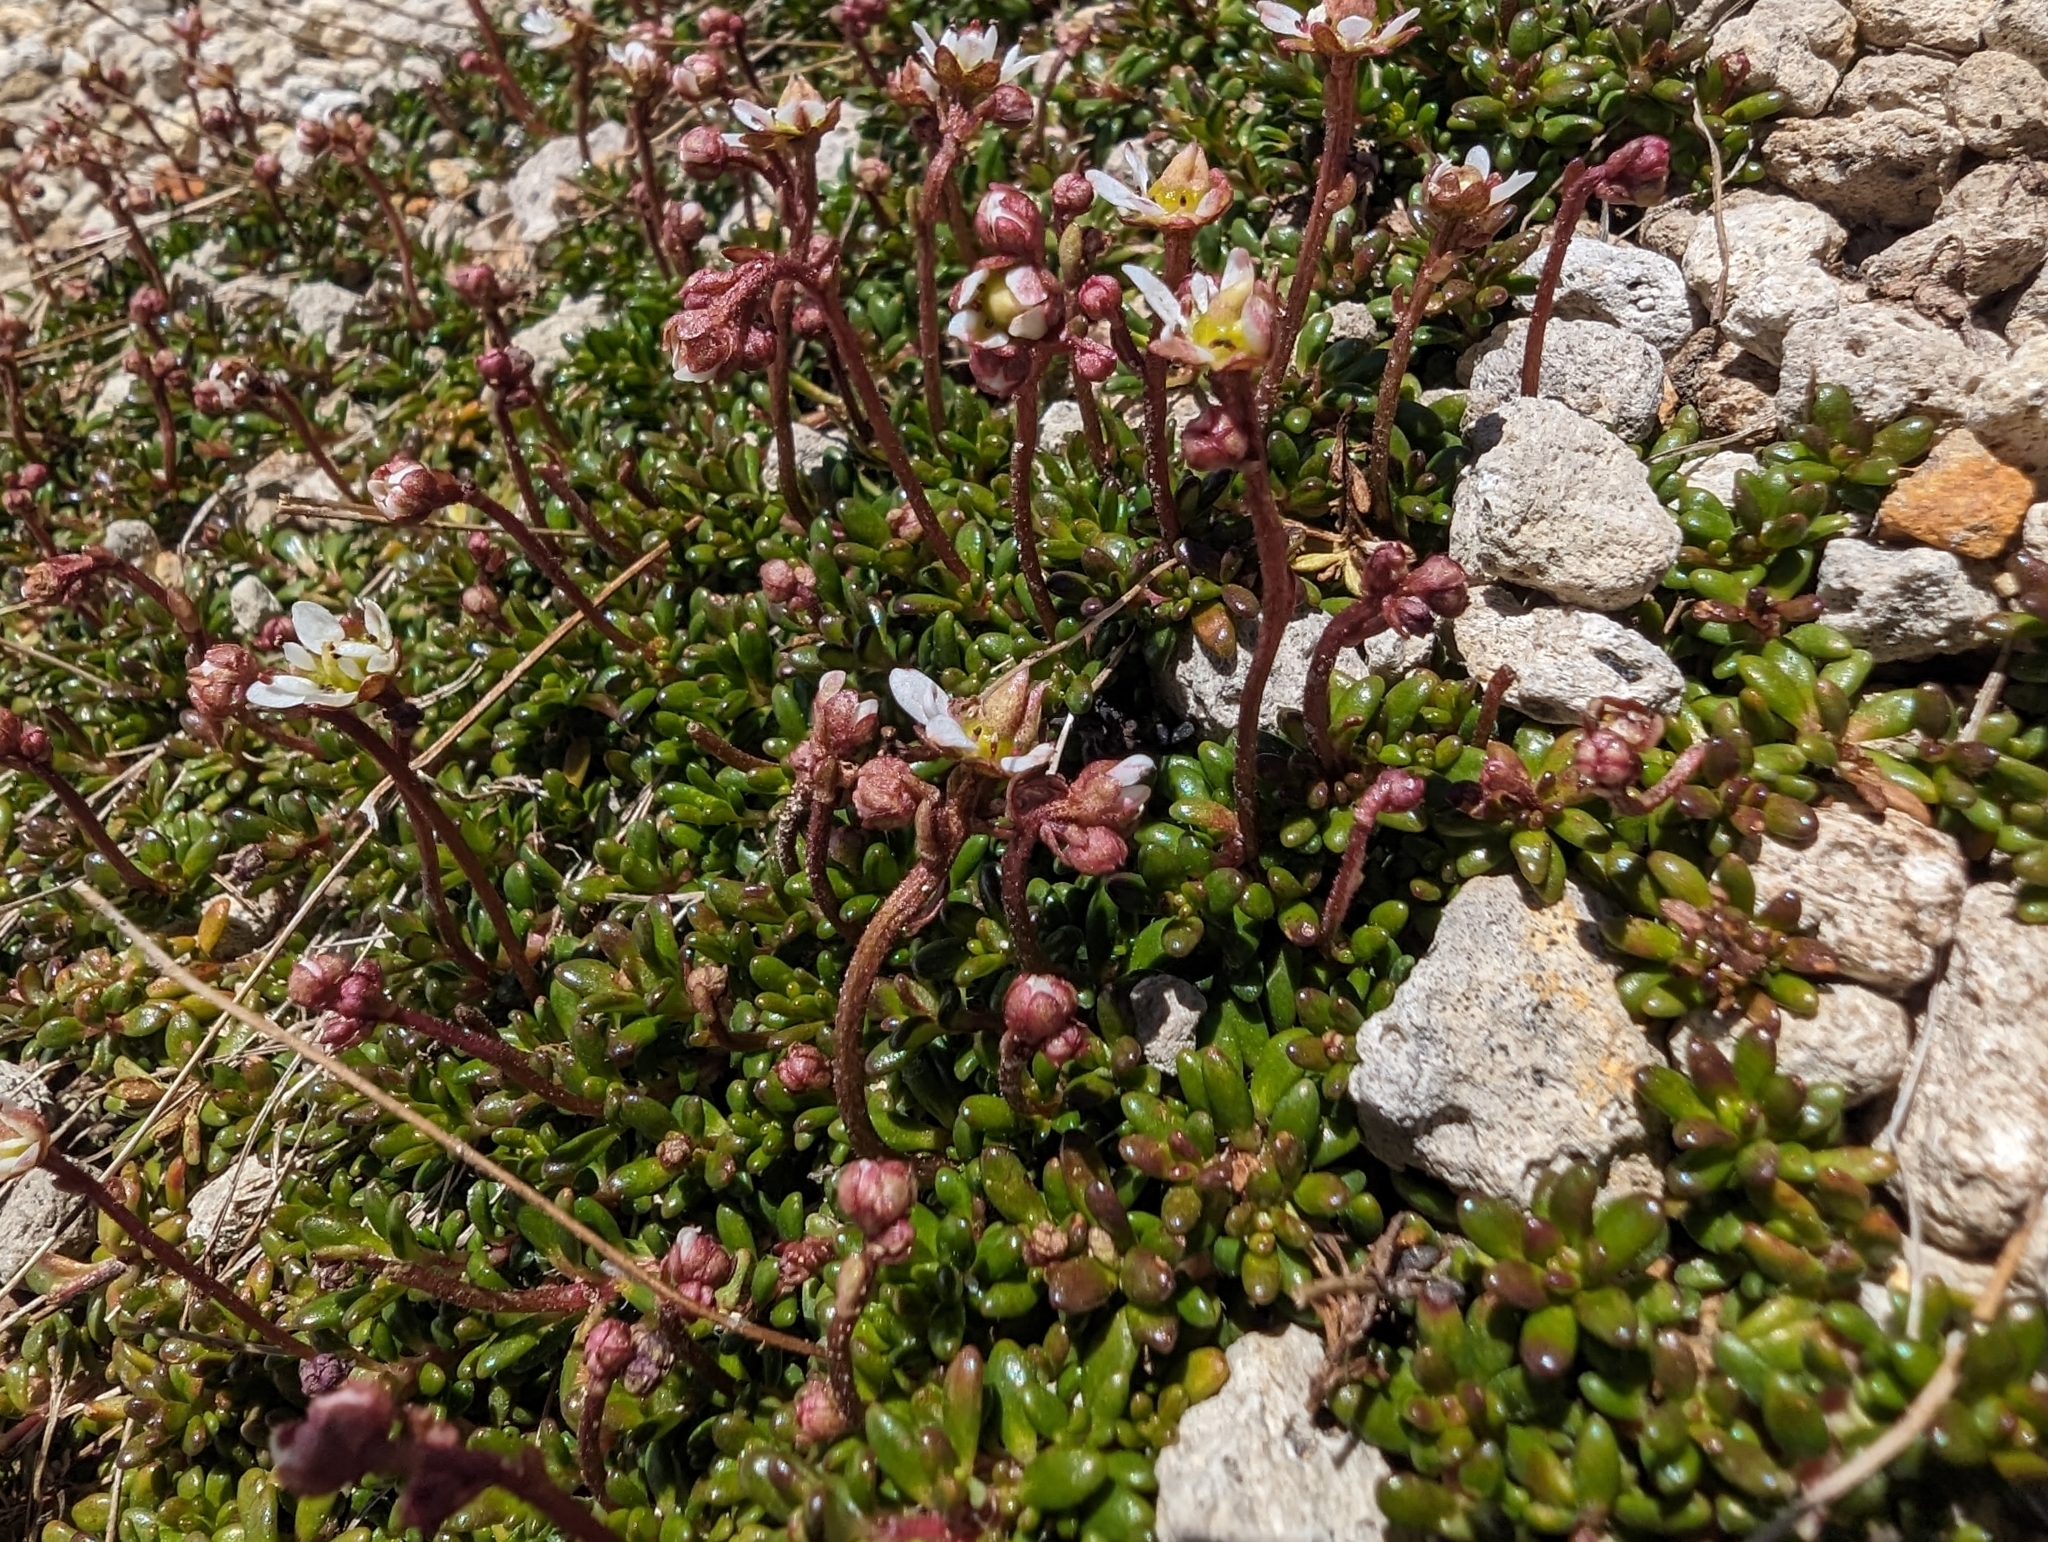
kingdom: Plantae
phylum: Tracheophyta
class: Magnoliopsida
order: Saxifragales
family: Saxifragaceae
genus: Micranthes
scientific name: Micranthes tolmiei
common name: Tolmie's saxifrage
